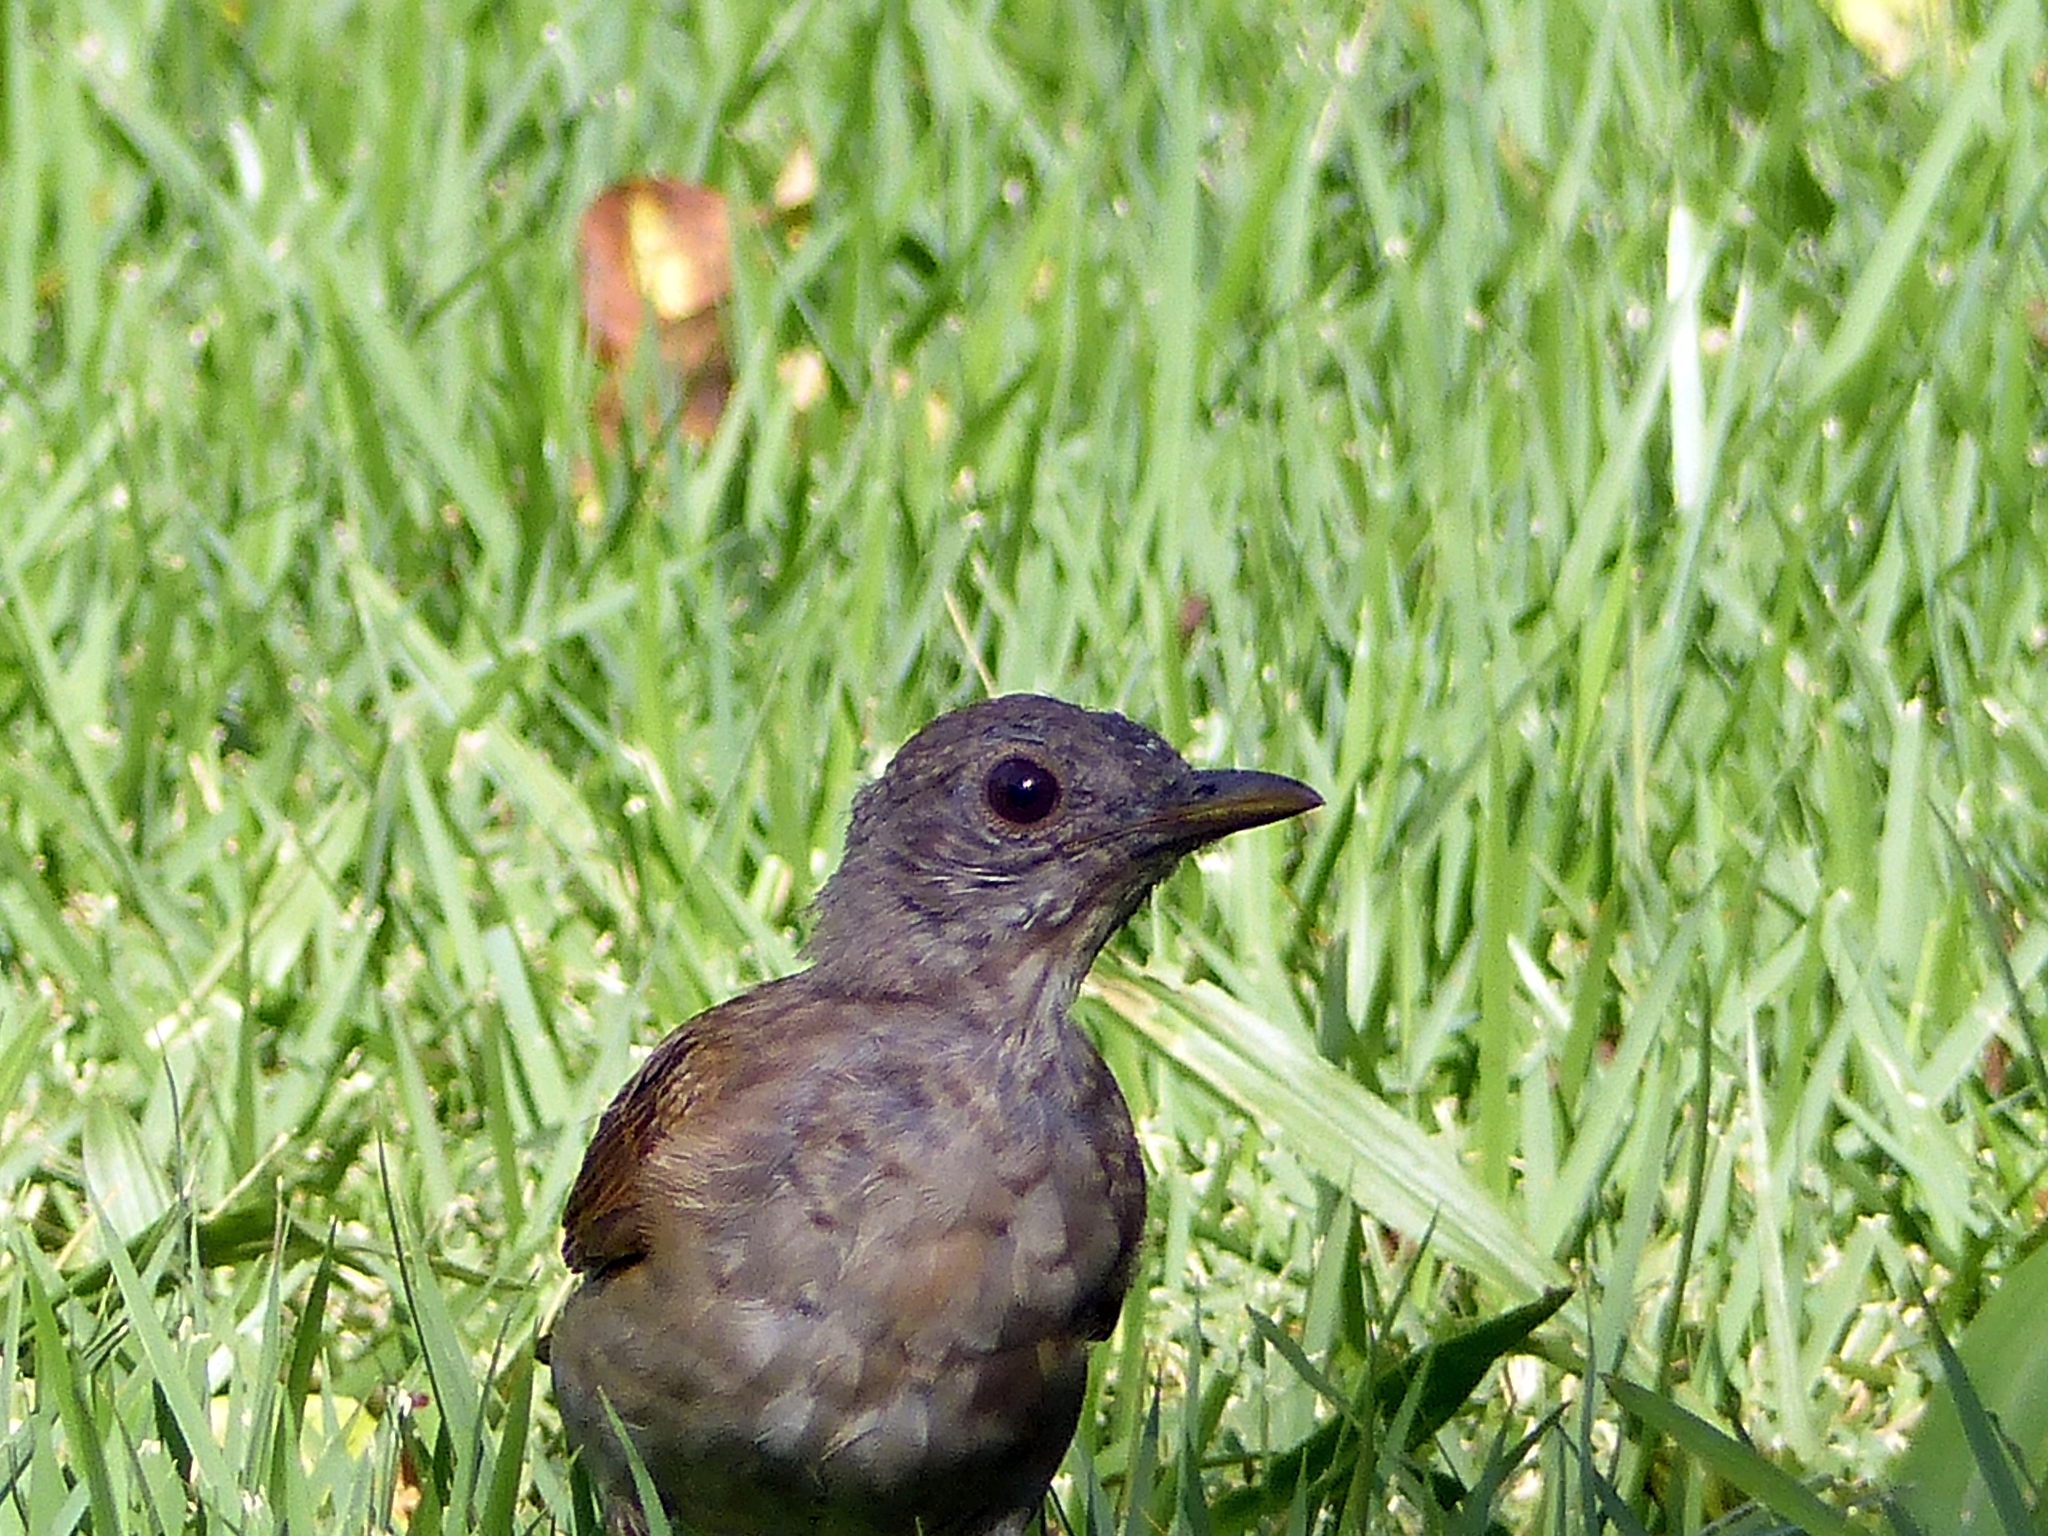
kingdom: Animalia
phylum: Chordata
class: Aves
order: Passeriformes
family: Turdidae
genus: Turdus
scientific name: Turdus leucomelas
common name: Pale-breasted thrush
